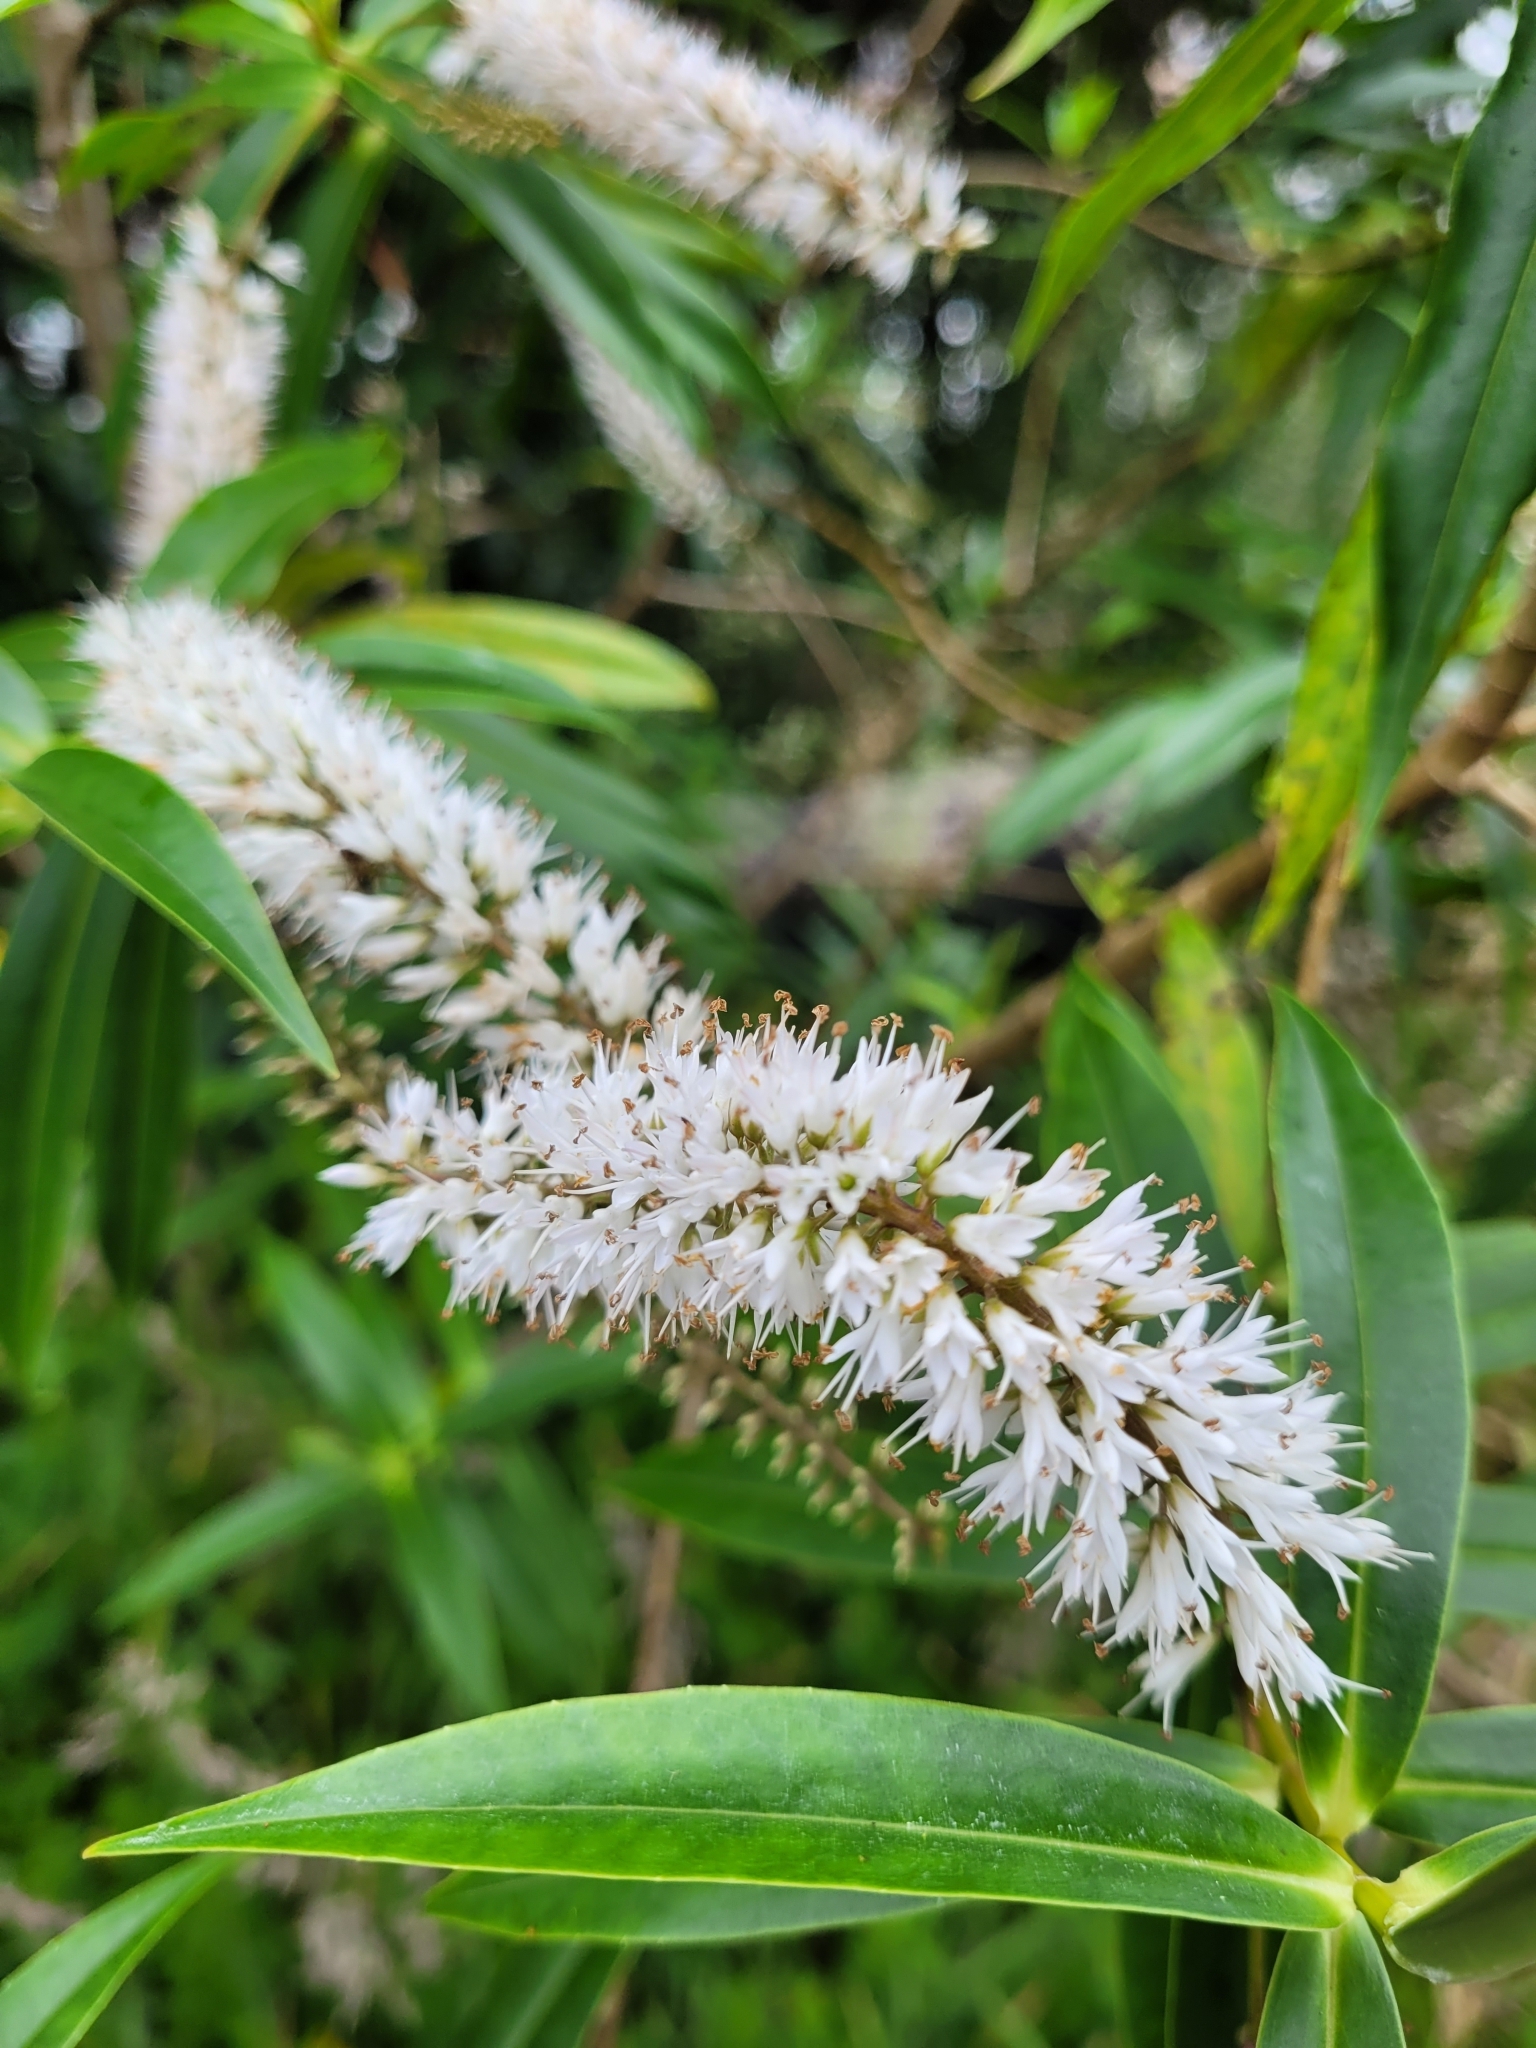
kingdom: Plantae
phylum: Tracheophyta
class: Magnoliopsida
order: Lamiales
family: Plantaginaceae
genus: Veronica
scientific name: Veronica salicifolia
